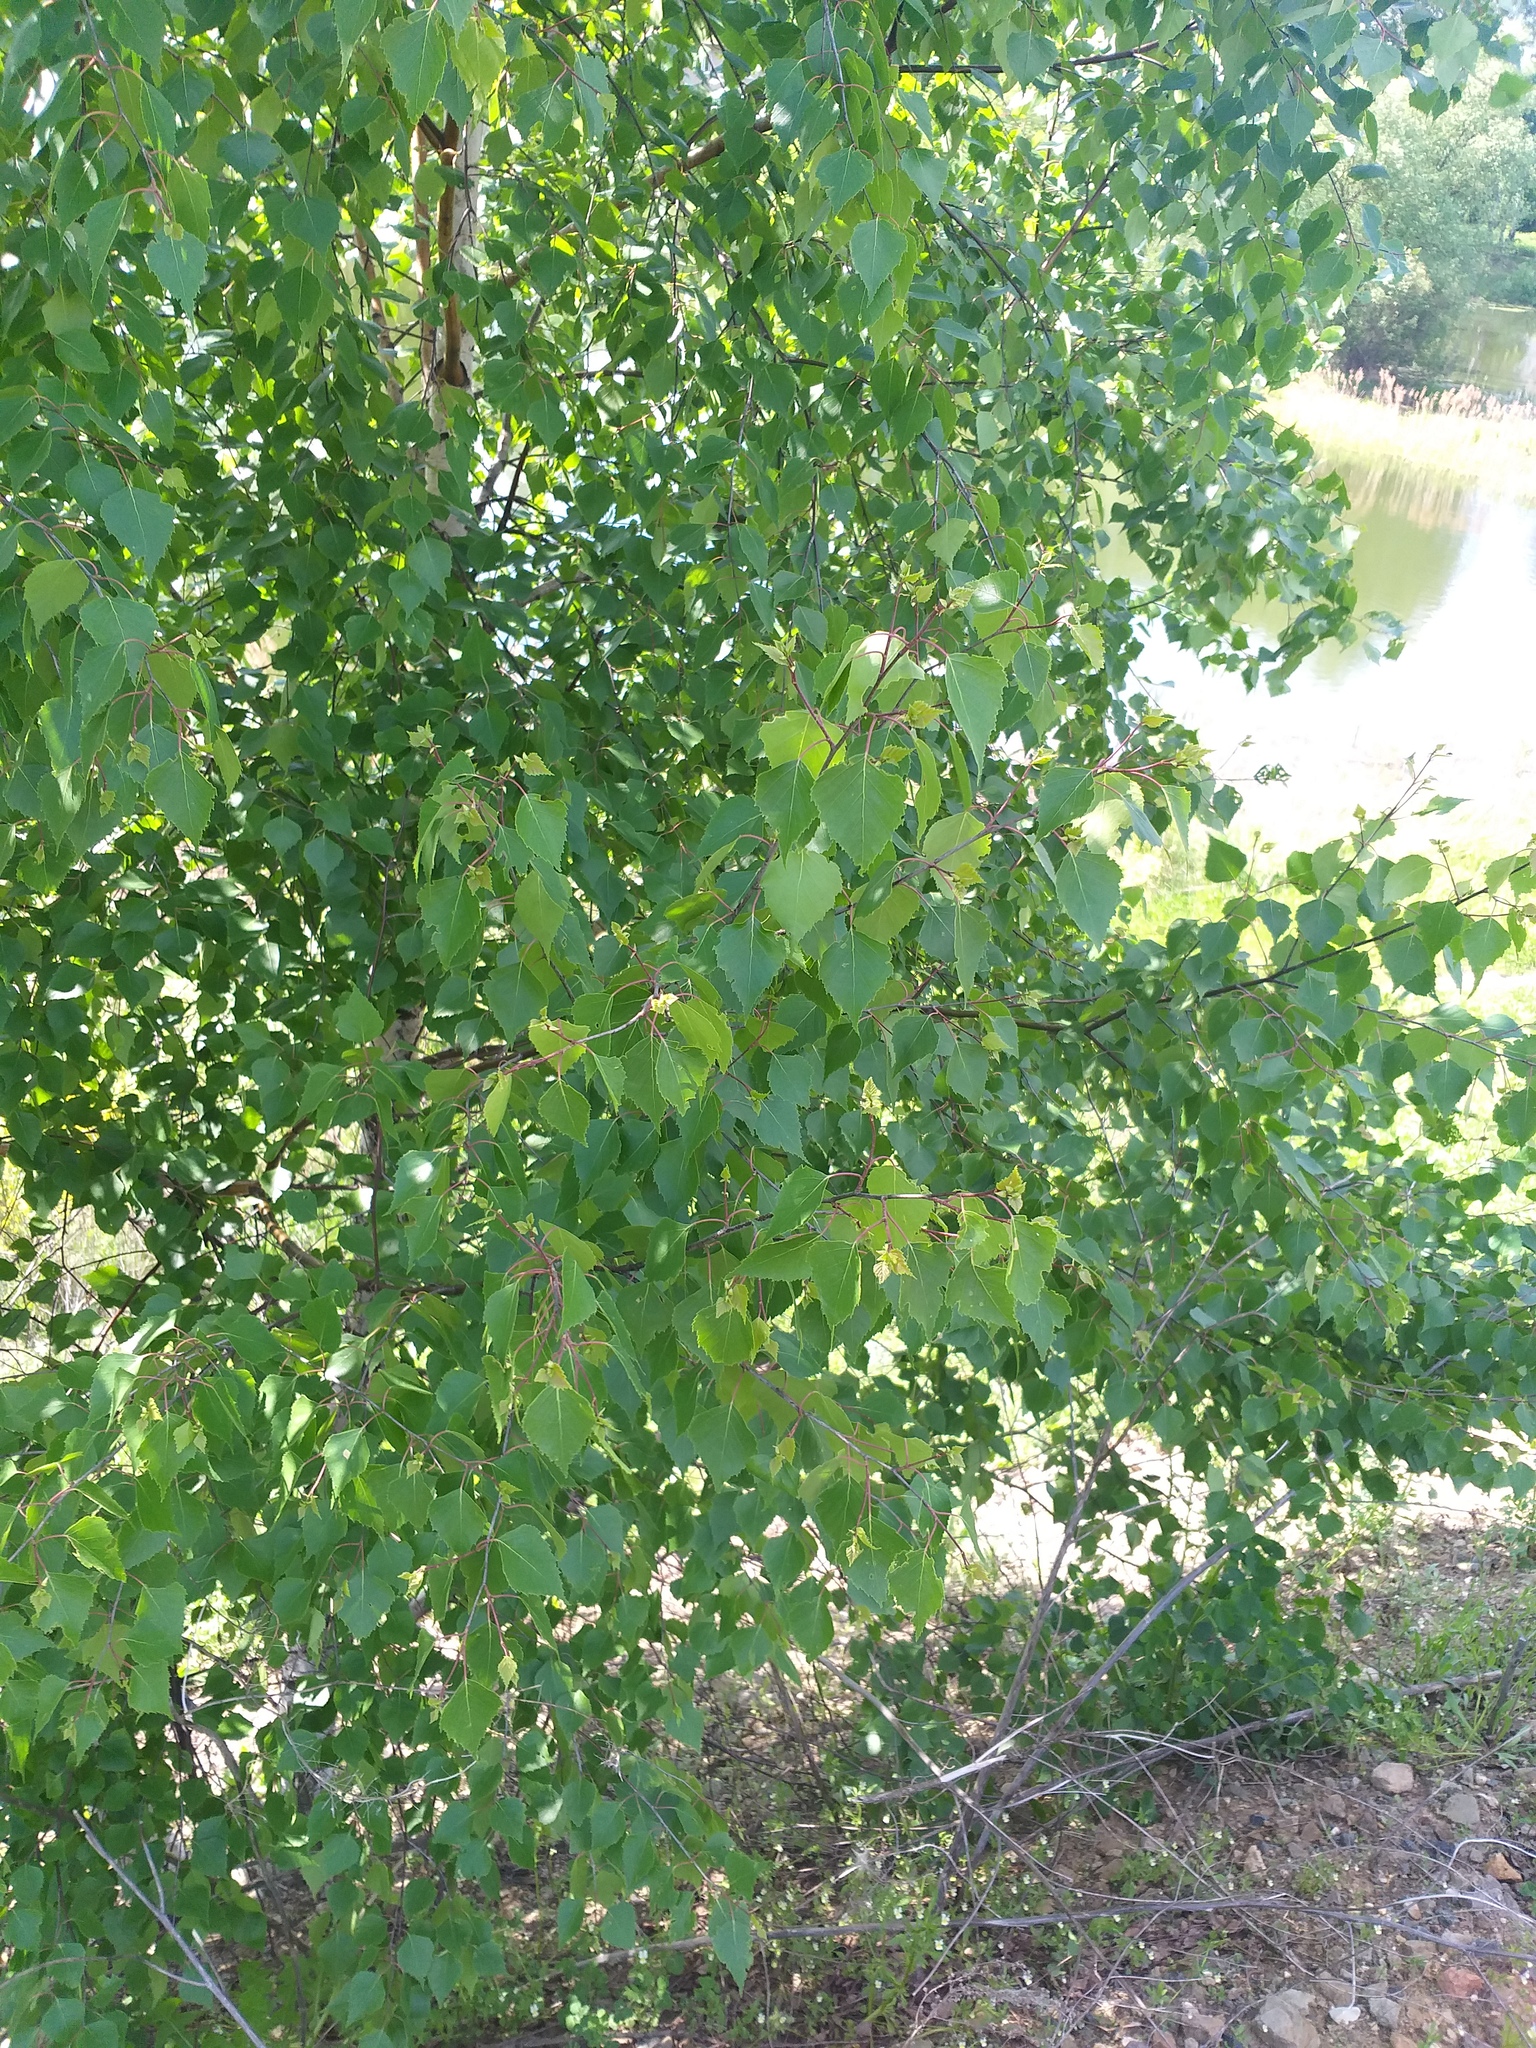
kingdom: Plantae
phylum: Tracheophyta
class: Magnoliopsida
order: Fagales
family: Betulaceae
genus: Betula
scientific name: Betula pendula
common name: Silver birch
